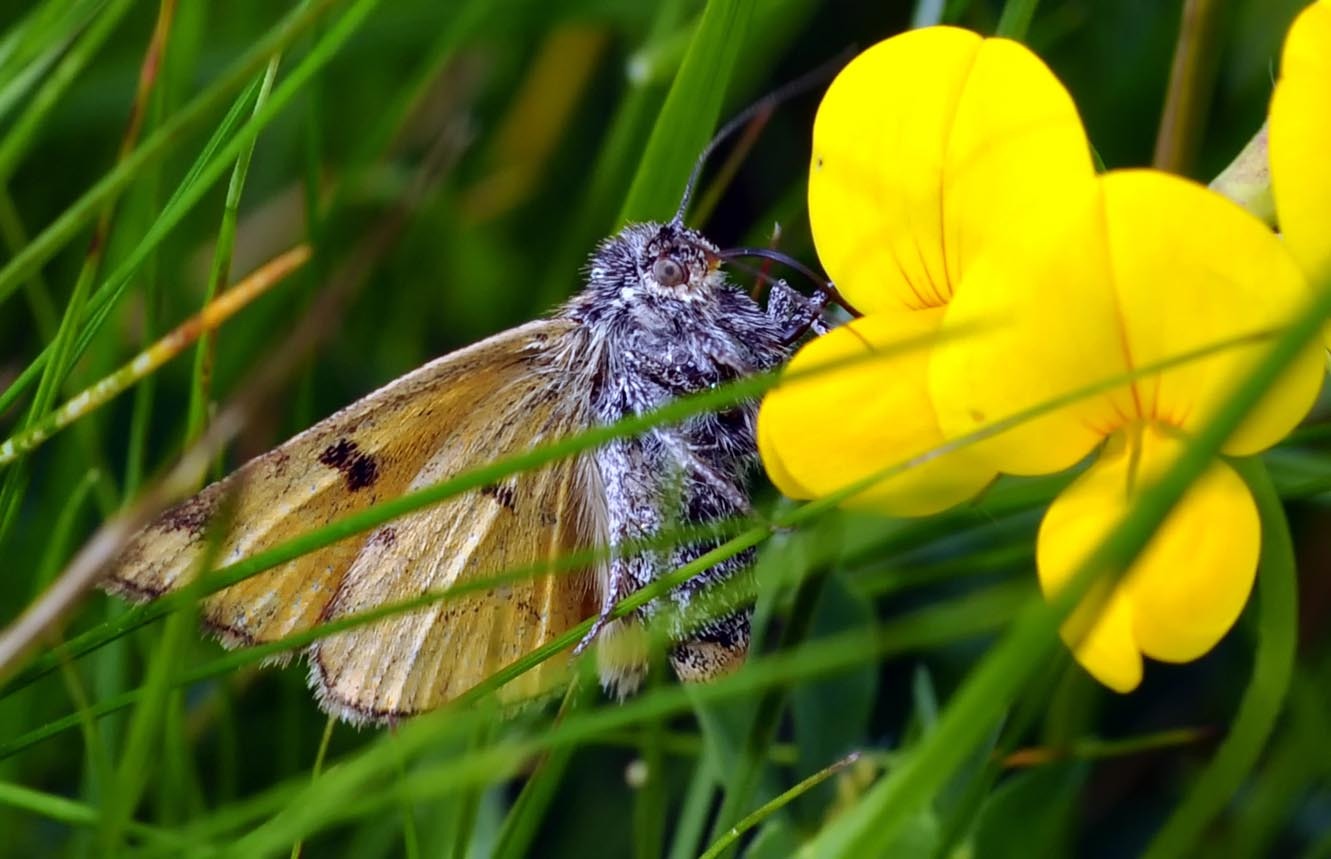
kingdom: Animalia
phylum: Arthropoda
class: Insecta
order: Lepidoptera
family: Erebidae
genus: Euclidia
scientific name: Euclidia glyphica
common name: Burnet companion
